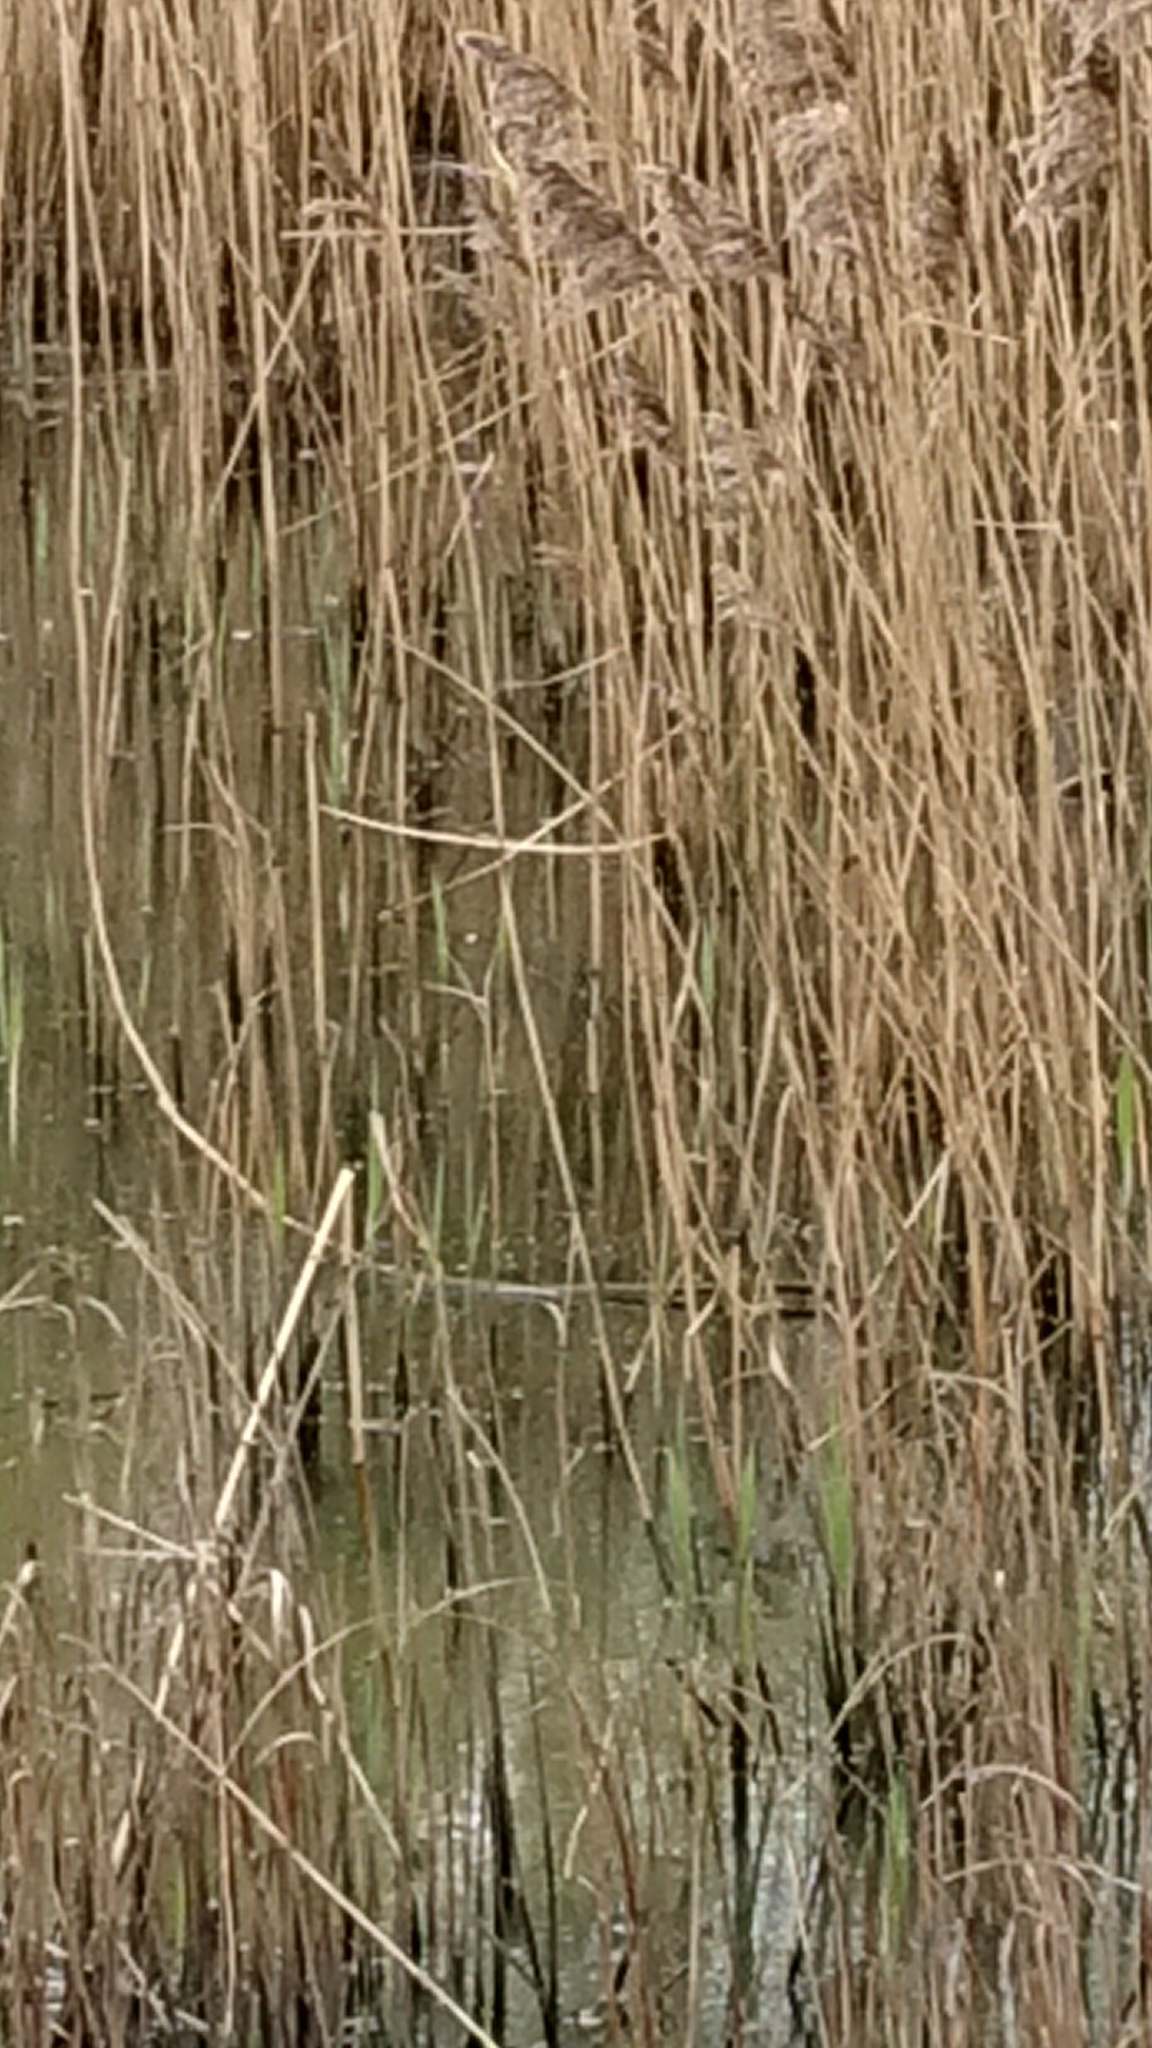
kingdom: Plantae
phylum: Tracheophyta
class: Liliopsida
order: Poales
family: Poaceae
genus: Phragmites
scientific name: Phragmites australis
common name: Common reed
